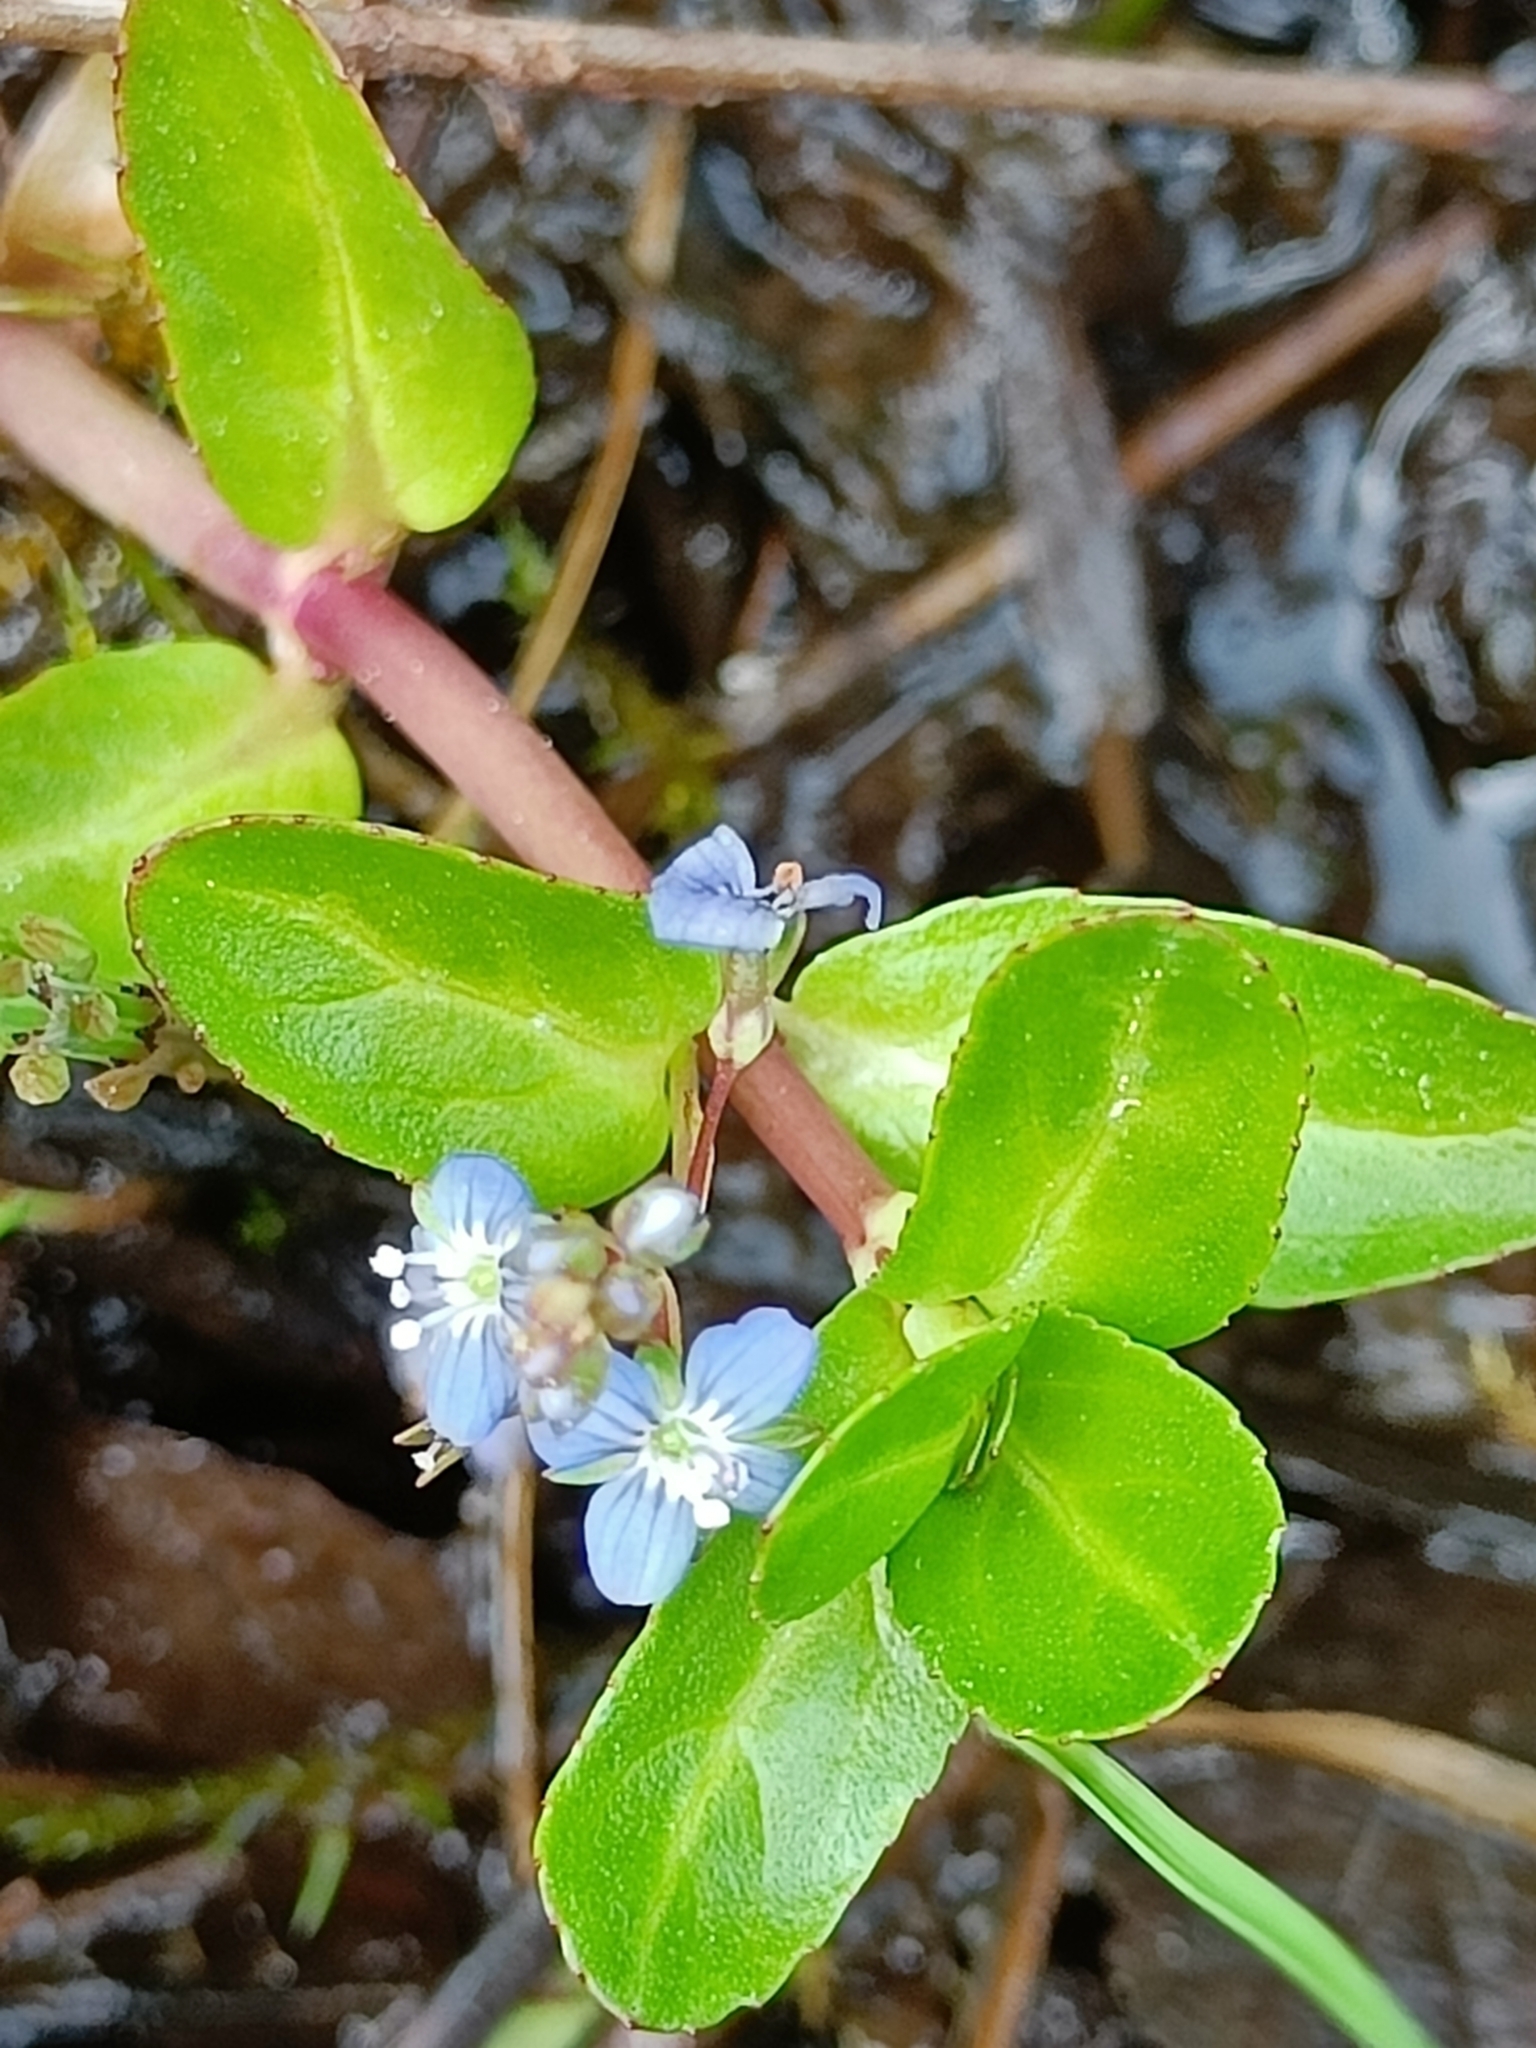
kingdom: Plantae
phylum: Tracheophyta
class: Magnoliopsida
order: Lamiales
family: Plantaginaceae
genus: Veronica
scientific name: Veronica beccabunga
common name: Brooklime
